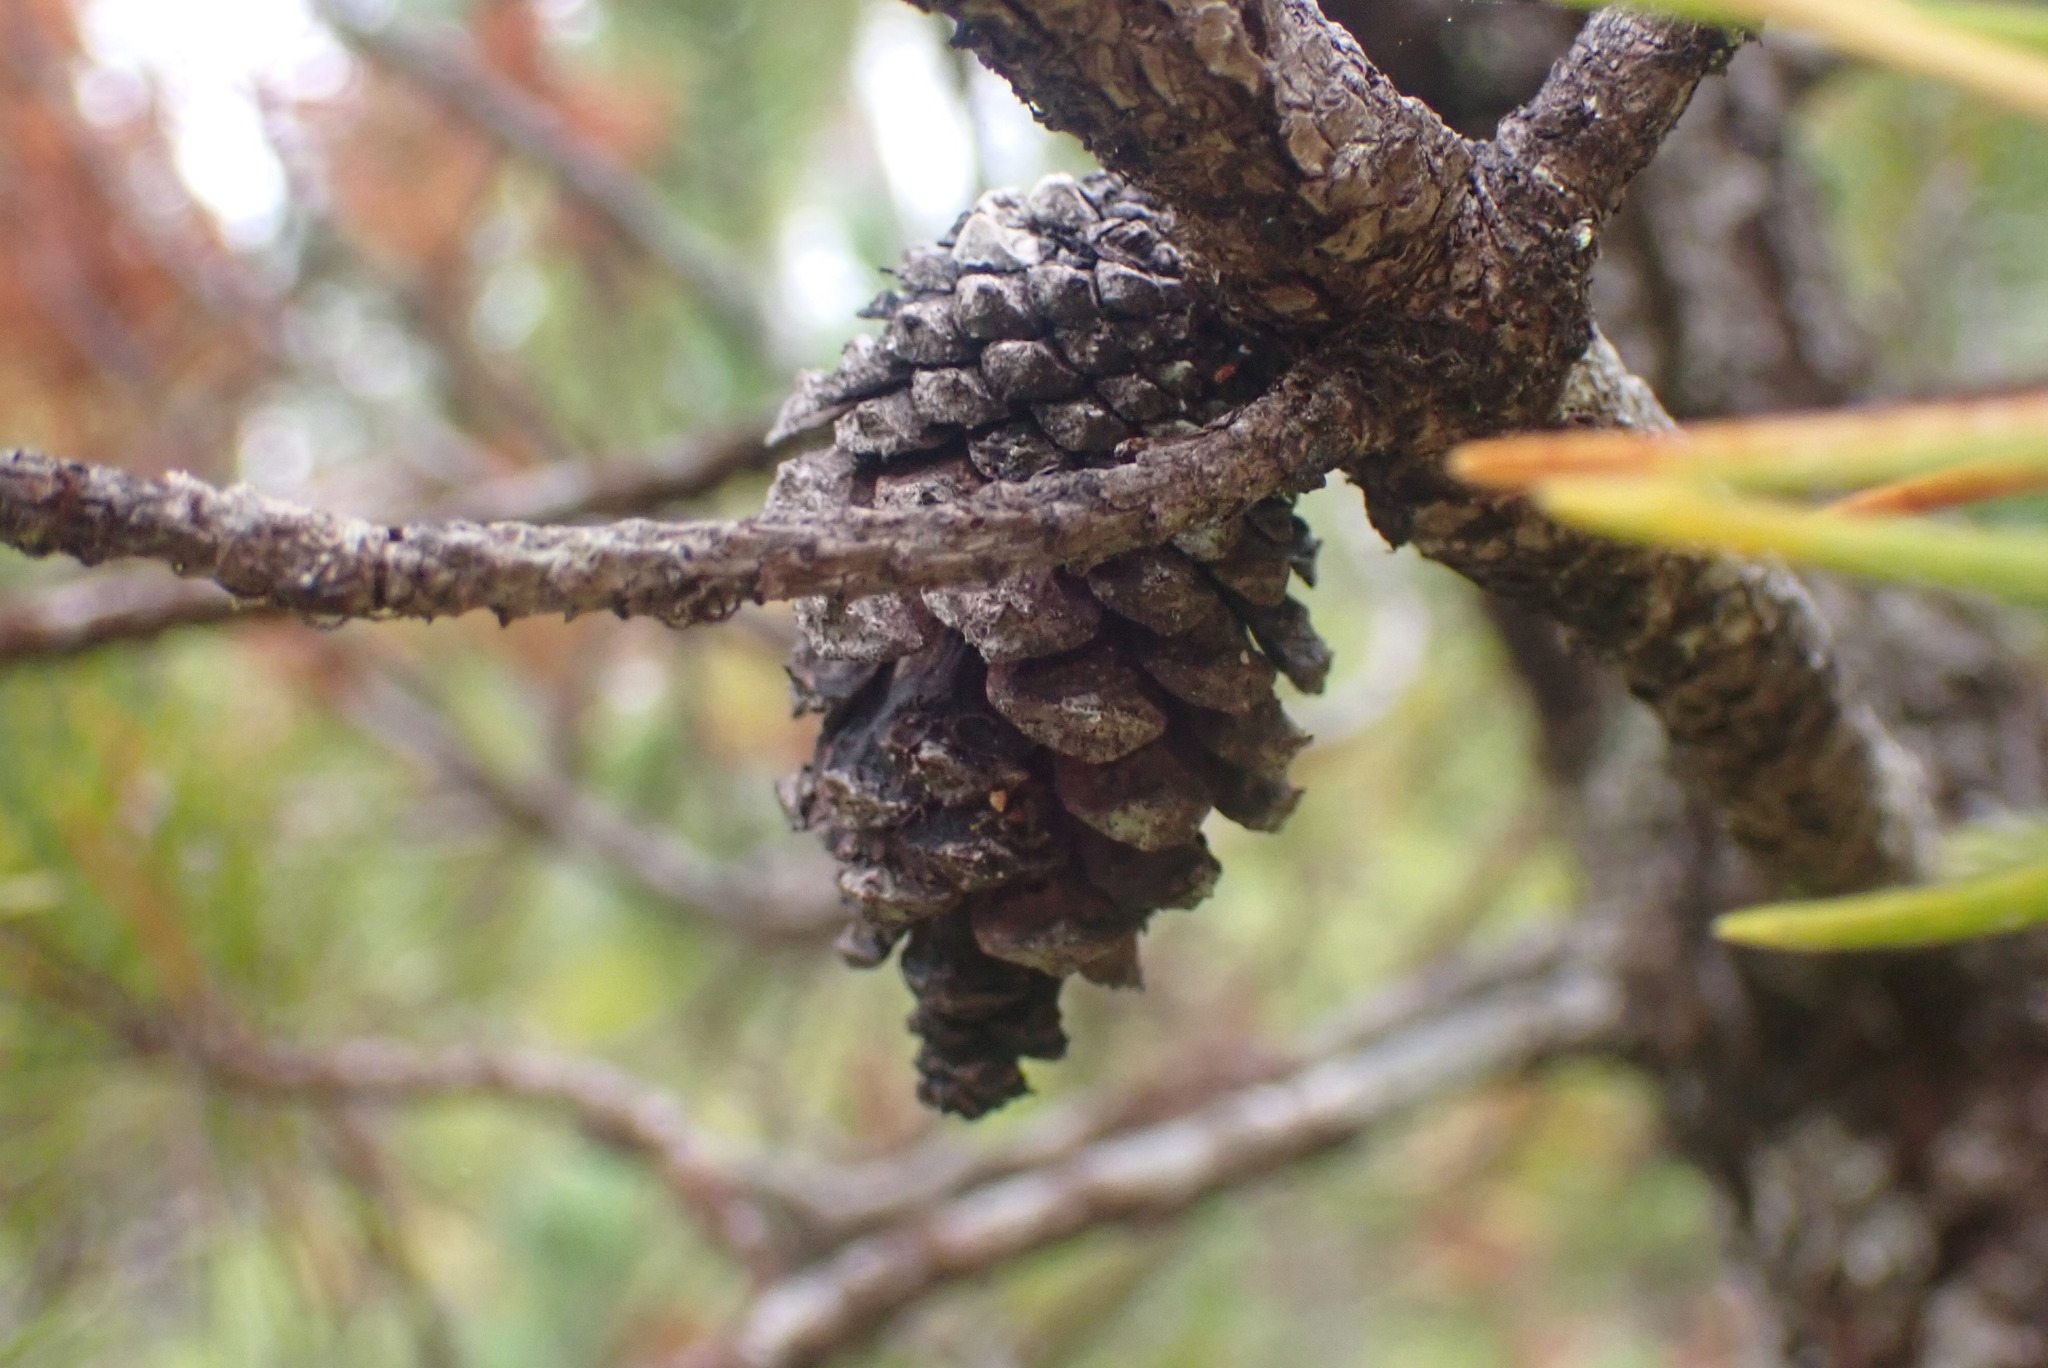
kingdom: Plantae
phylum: Tracheophyta
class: Pinopsida
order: Pinales
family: Pinaceae
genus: Pinus
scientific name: Pinus contorta
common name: Lodgepole pine
